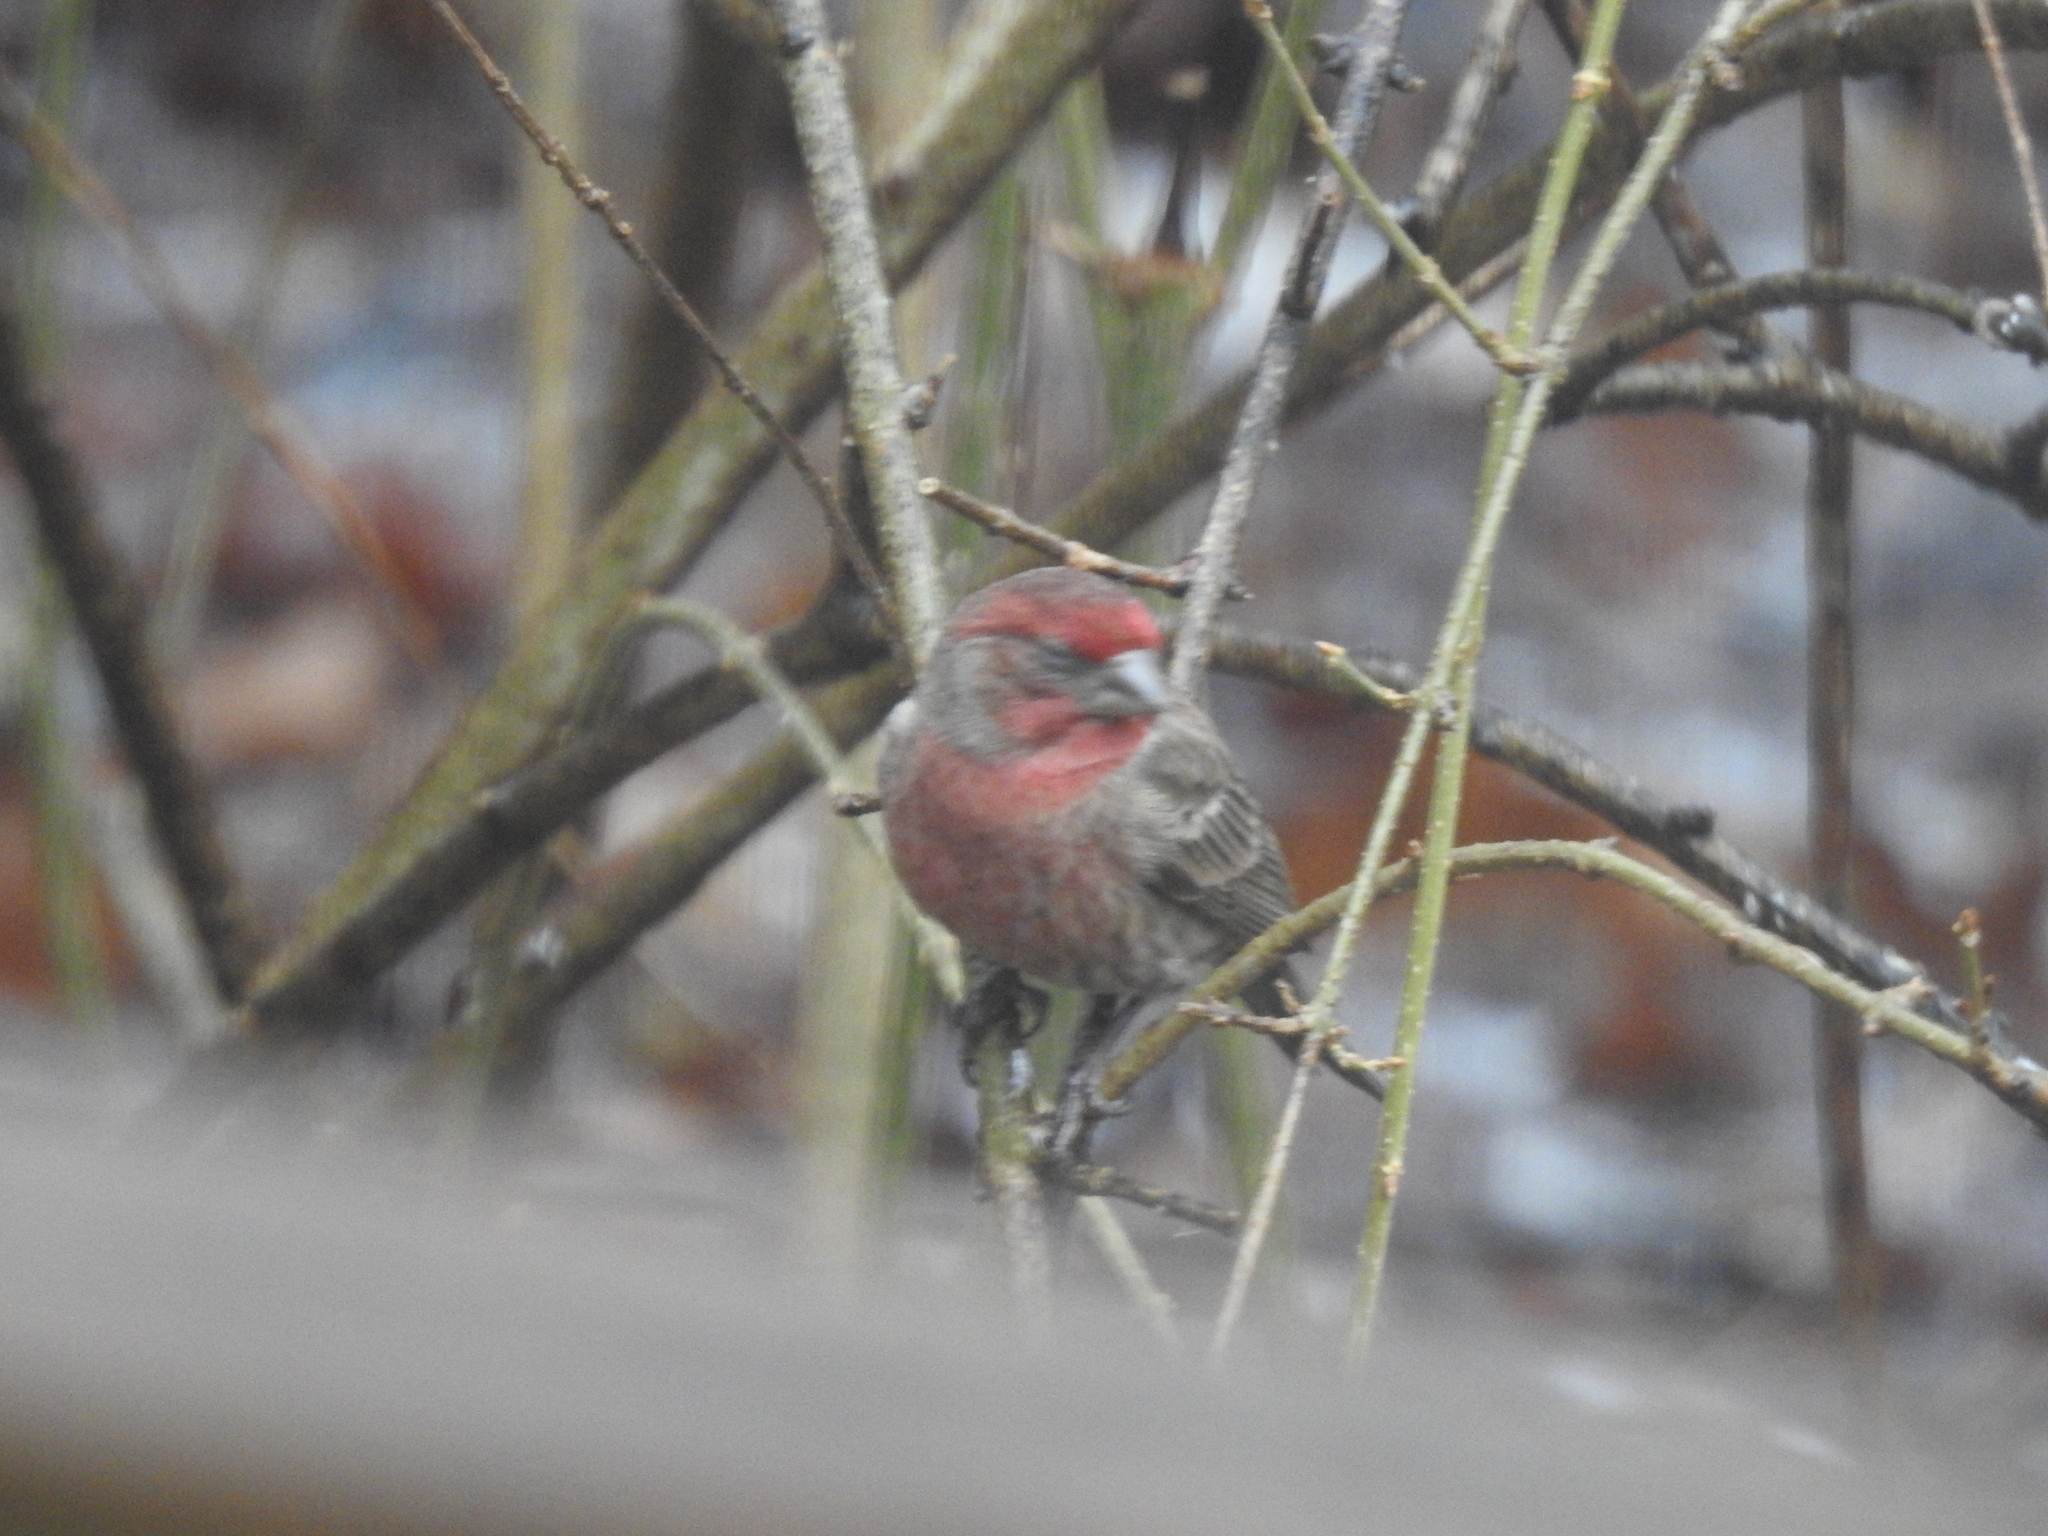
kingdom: Animalia
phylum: Chordata
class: Aves
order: Passeriformes
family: Fringillidae
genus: Haemorhous
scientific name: Haemorhous mexicanus
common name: House finch
